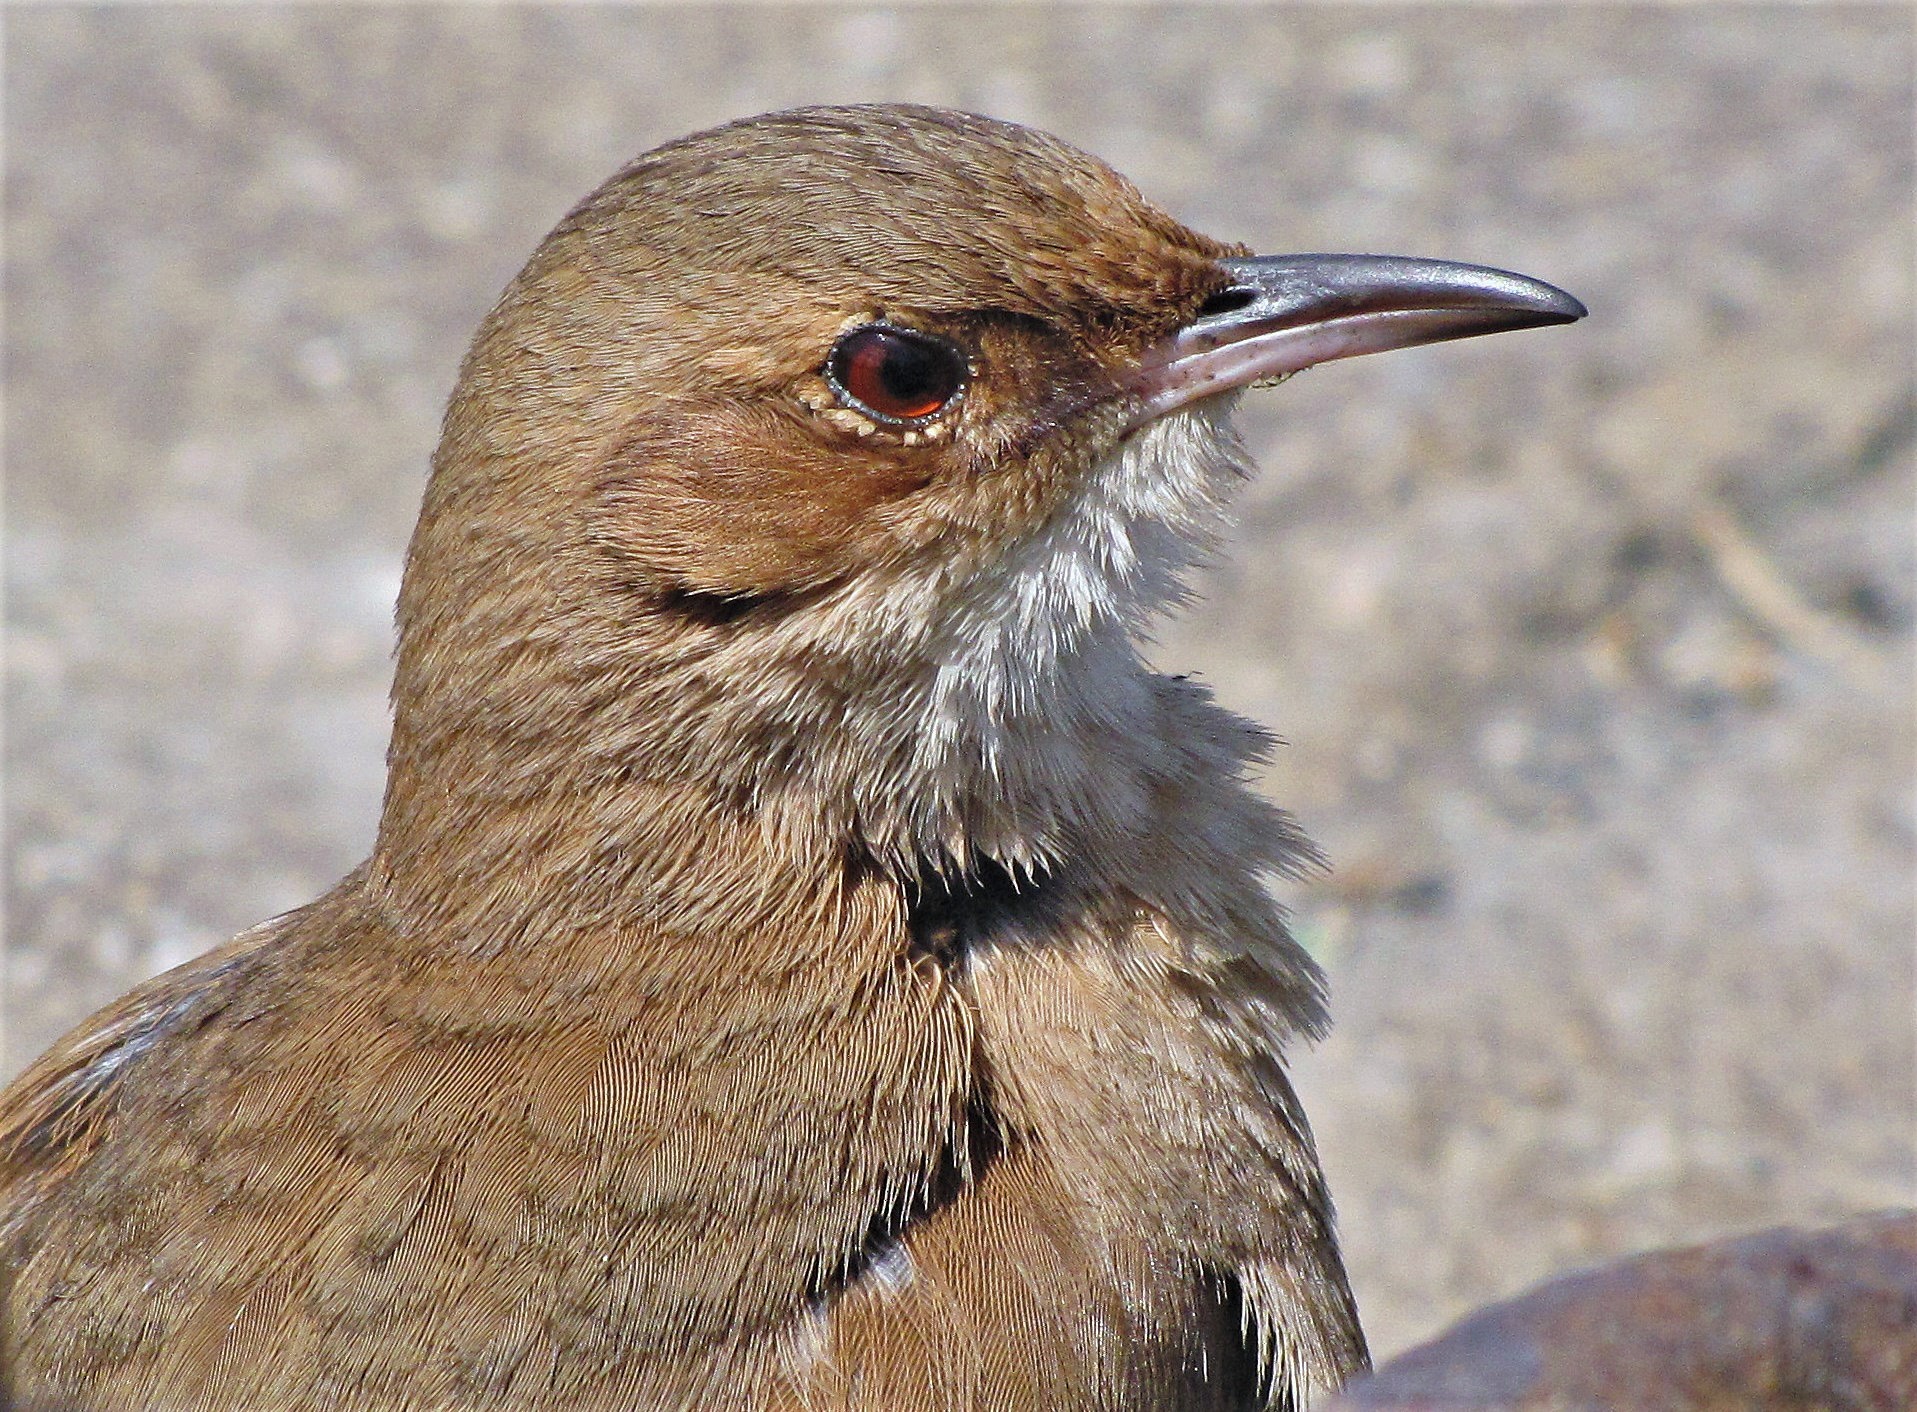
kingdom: Animalia
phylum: Chordata
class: Aves
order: Passeriformes
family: Furnariidae
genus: Furnarius
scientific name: Furnarius rufus
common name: Rufous hornero
